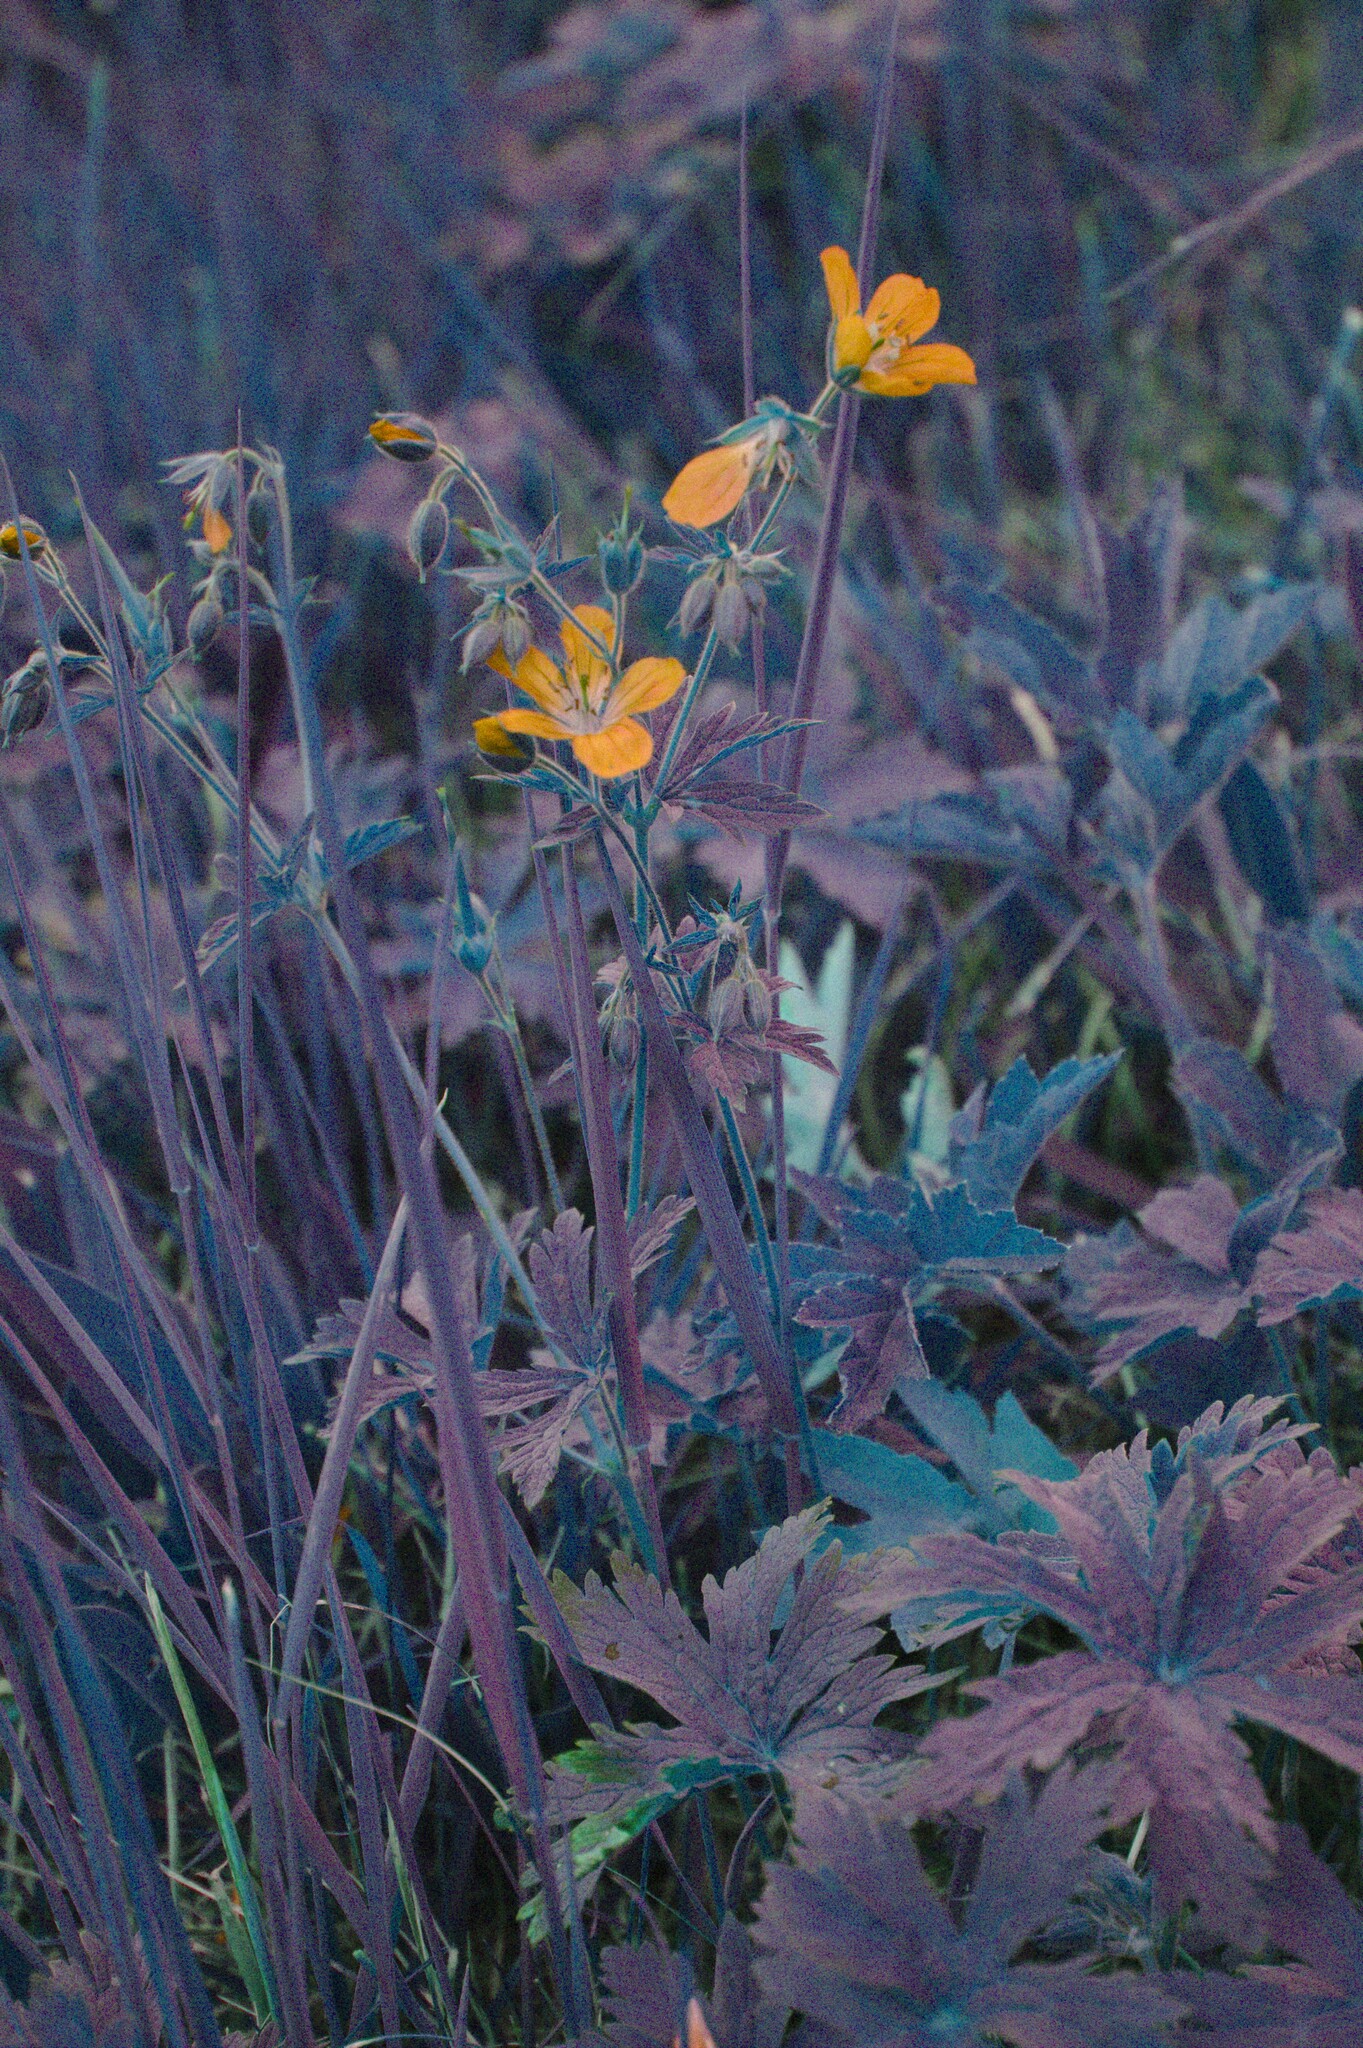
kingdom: Plantae
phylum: Tracheophyta
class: Magnoliopsida
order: Geraniales
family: Geraniaceae
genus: Geranium
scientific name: Geranium sylvaticum
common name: Wood crane's-bill
